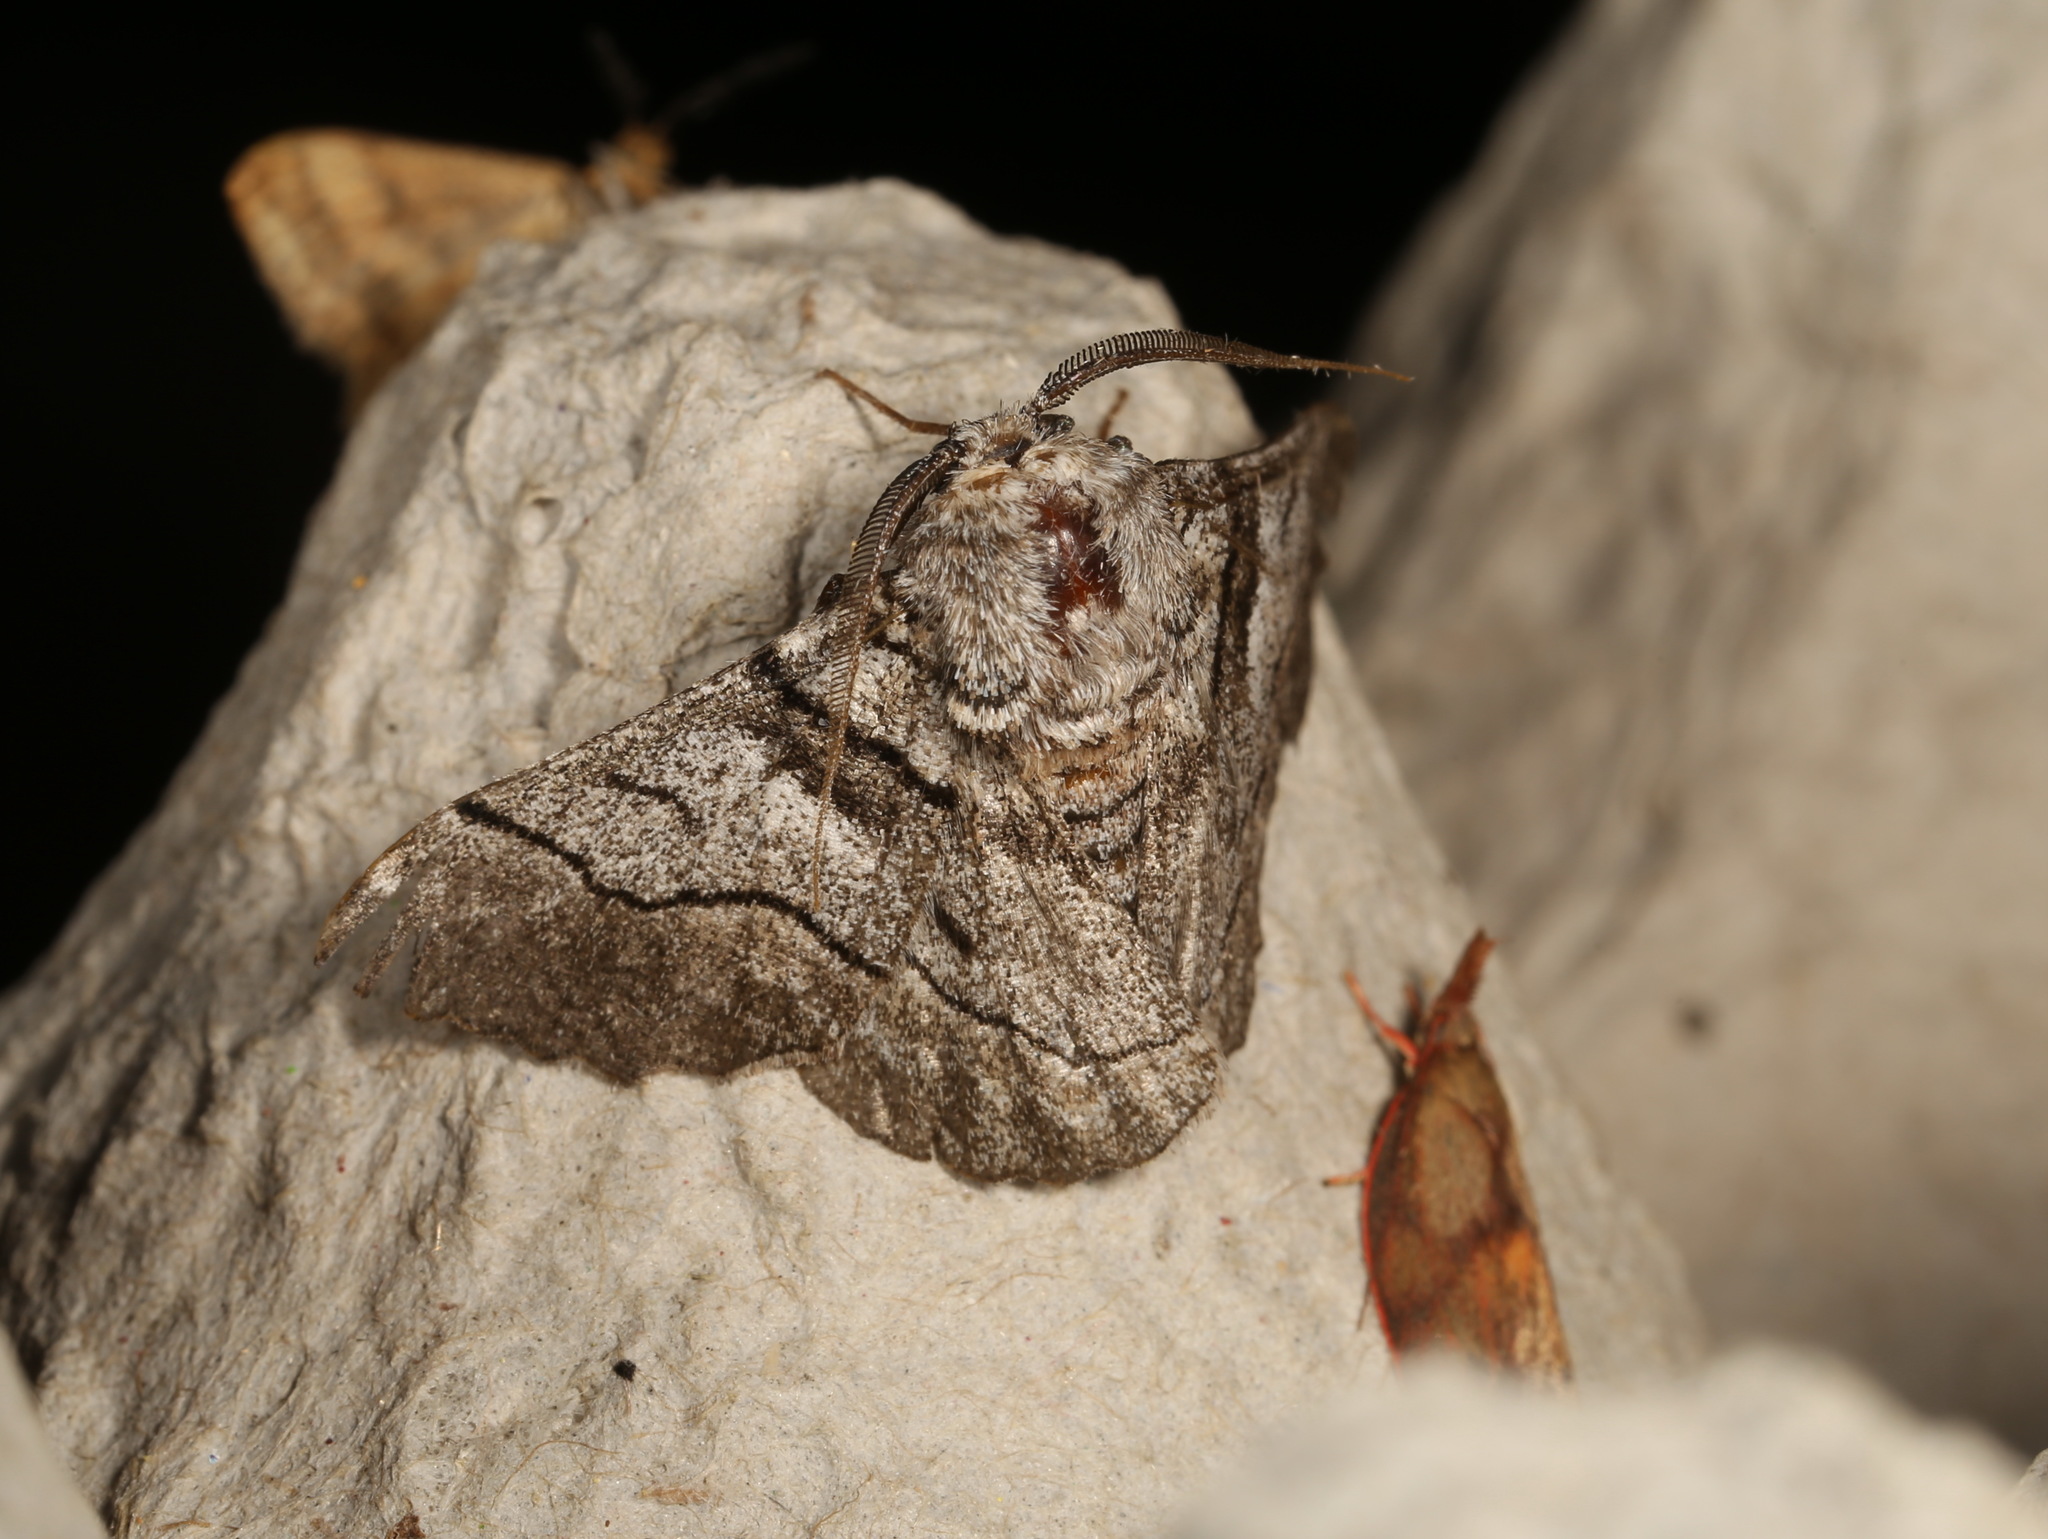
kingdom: Animalia
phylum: Arthropoda
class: Insecta
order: Lepidoptera
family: Geometridae
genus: Hypobapta
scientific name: Hypobapta diffundens
